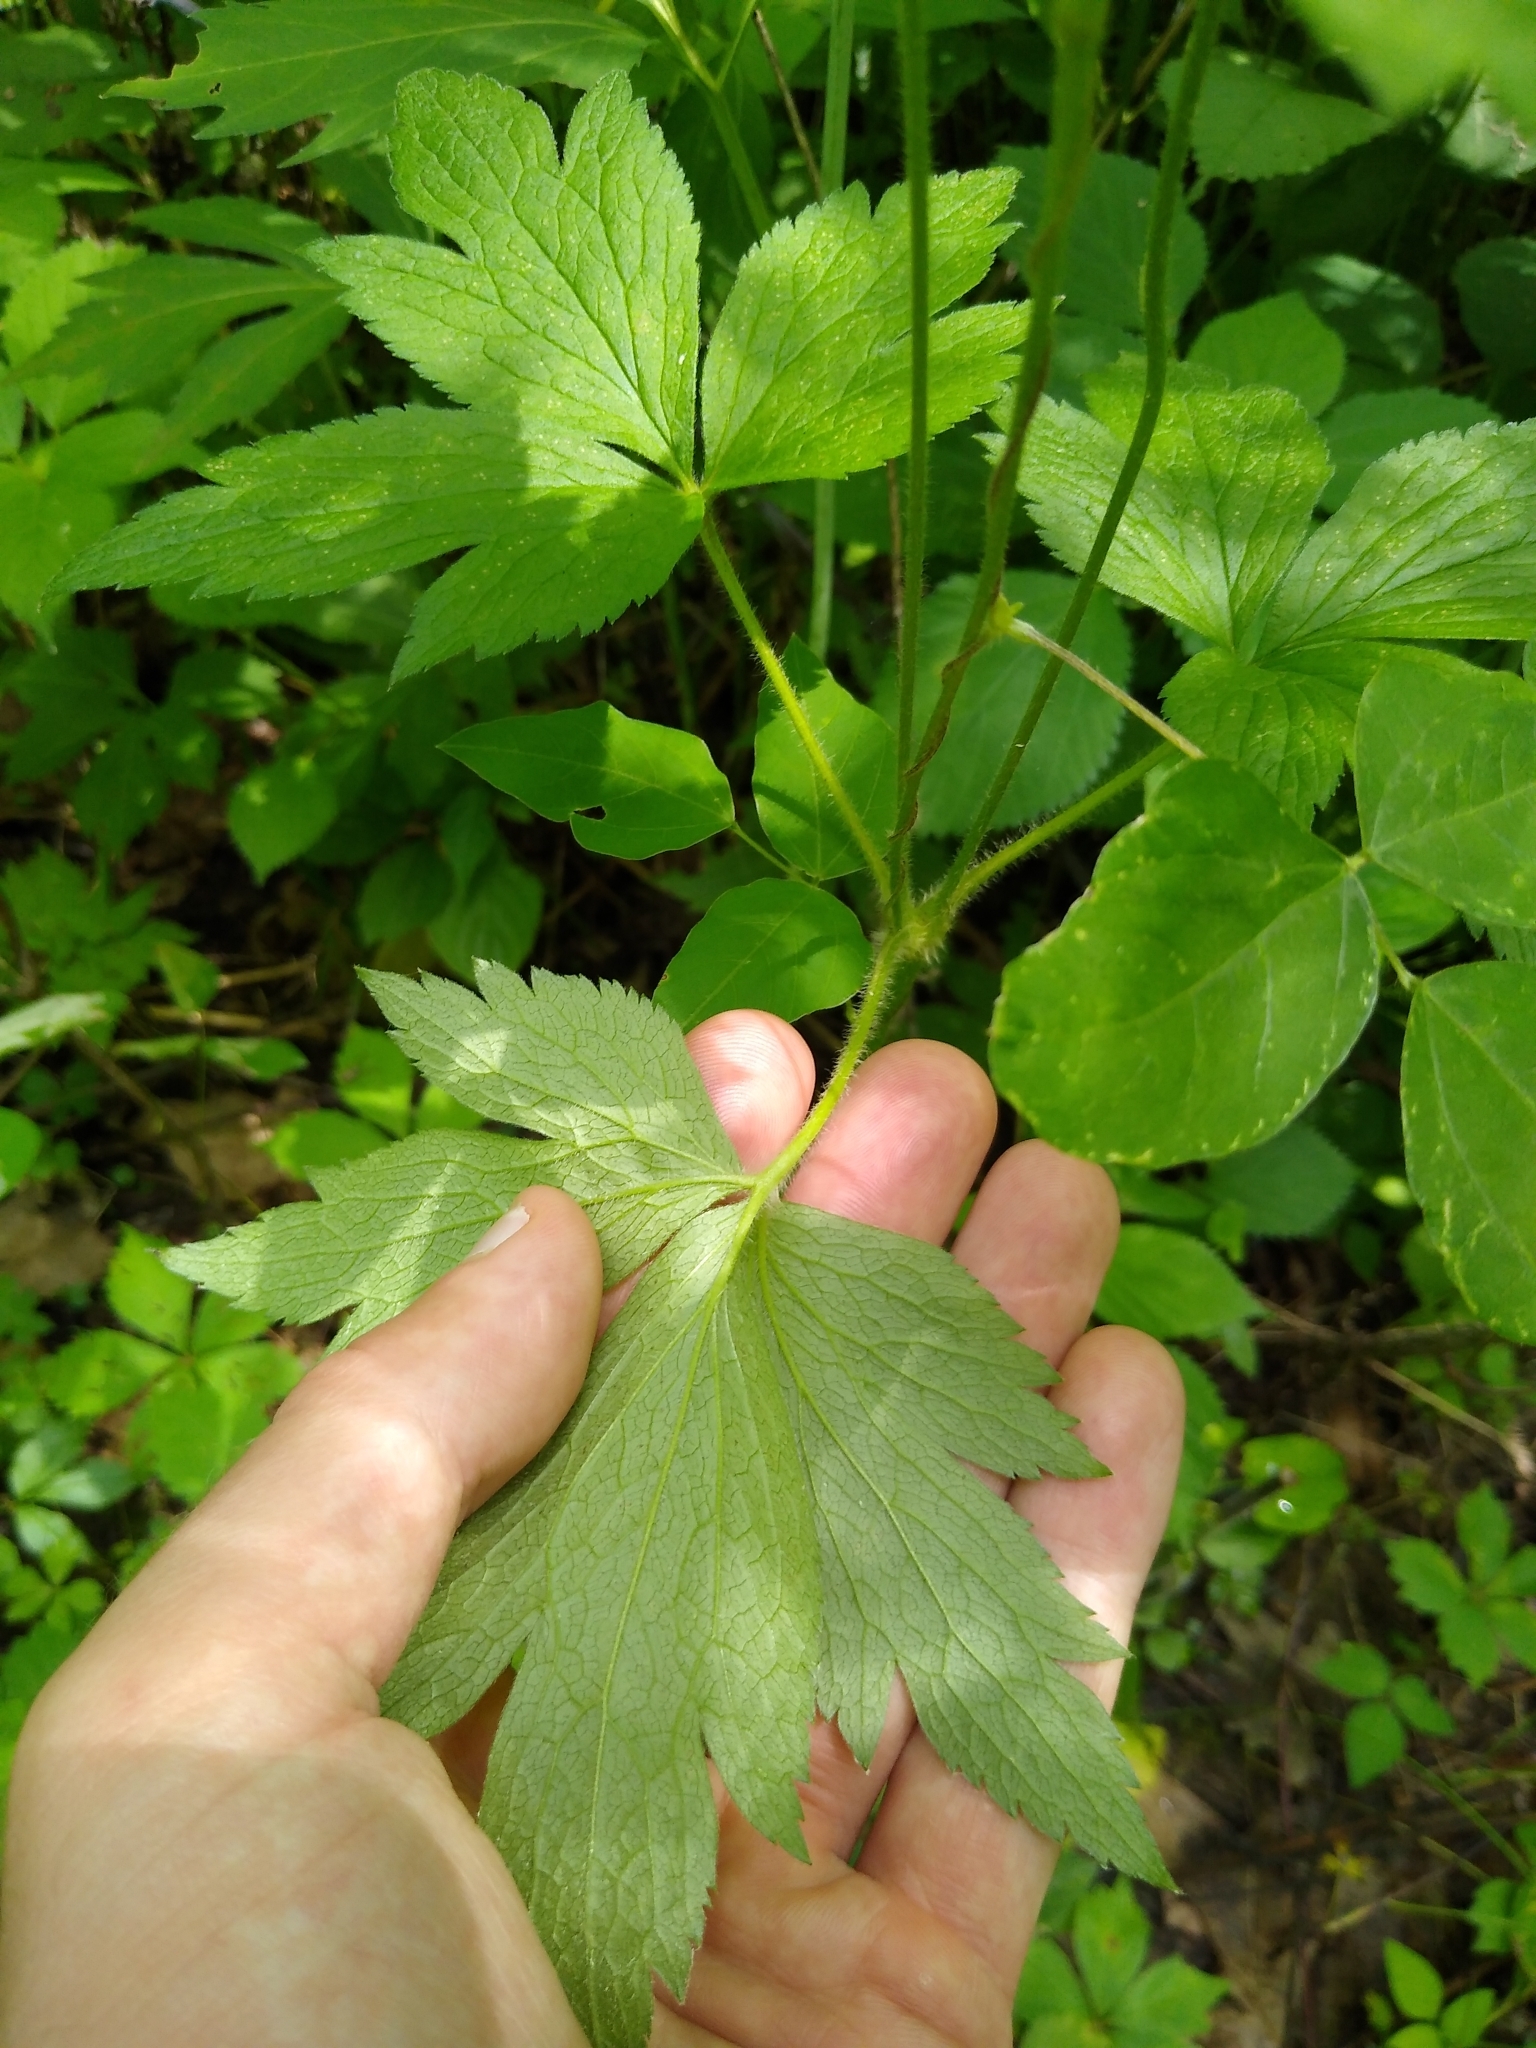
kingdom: Plantae
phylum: Tracheophyta
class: Magnoliopsida
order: Ranunculales
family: Ranunculaceae
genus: Anemone
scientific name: Anemone virginiana
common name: Tall anemone
